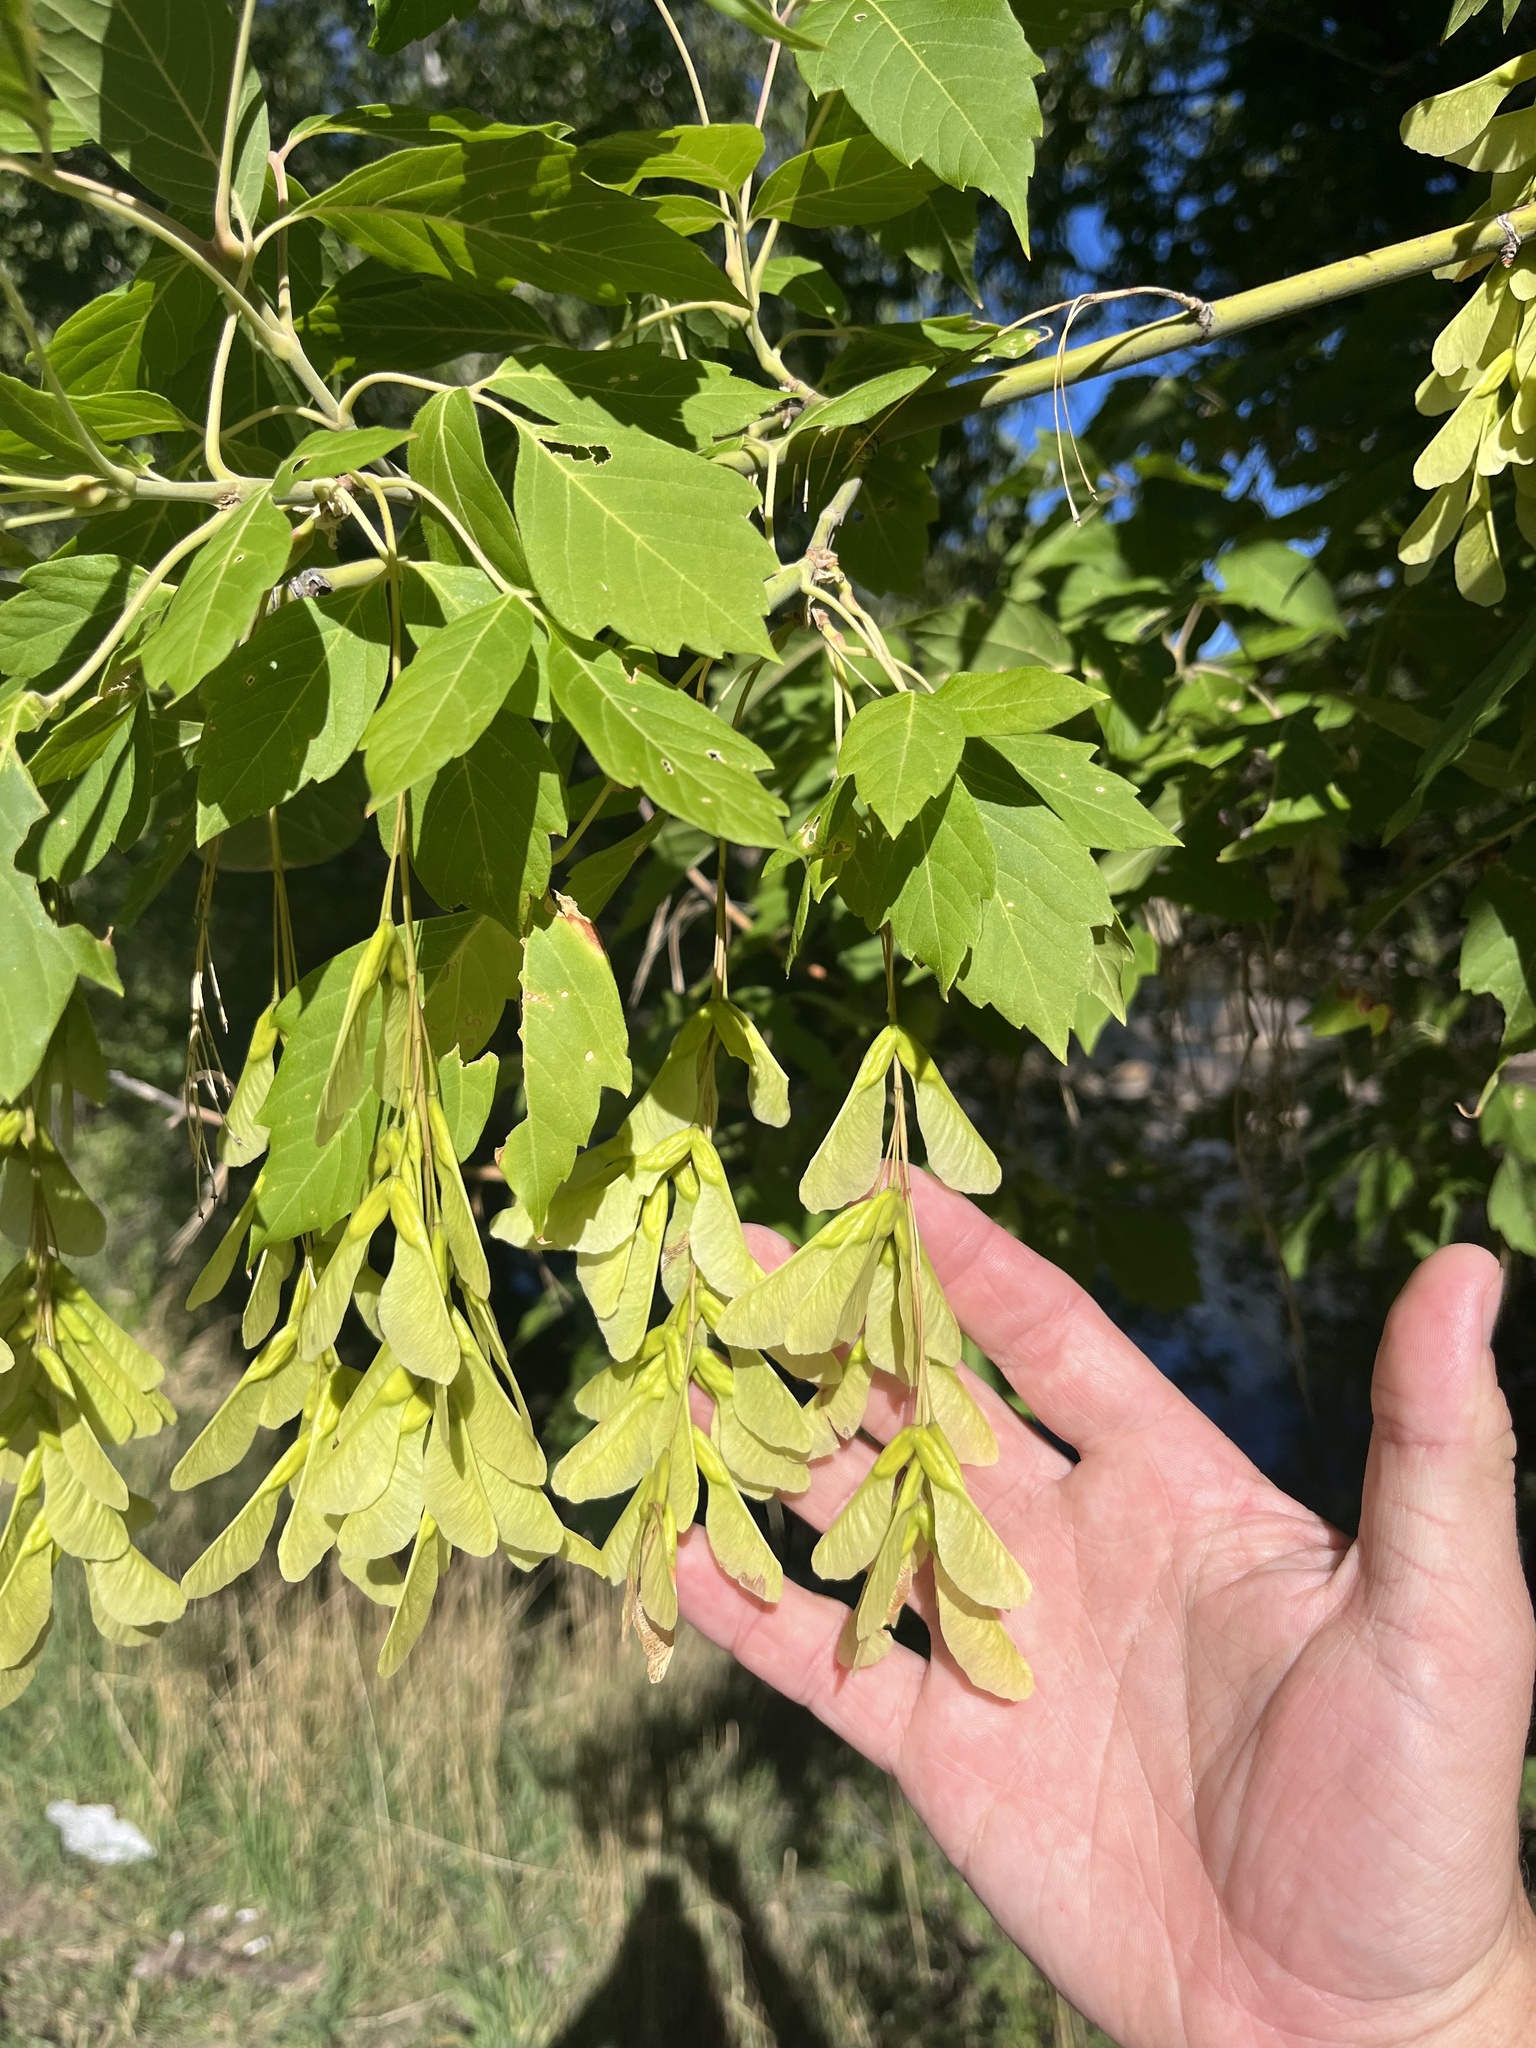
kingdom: Plantae
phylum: Tracheophyta
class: Magnoliopsida
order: Sapindales
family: Sapindaceae
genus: Acer
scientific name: Acer negundo
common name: Ashleaf maple
